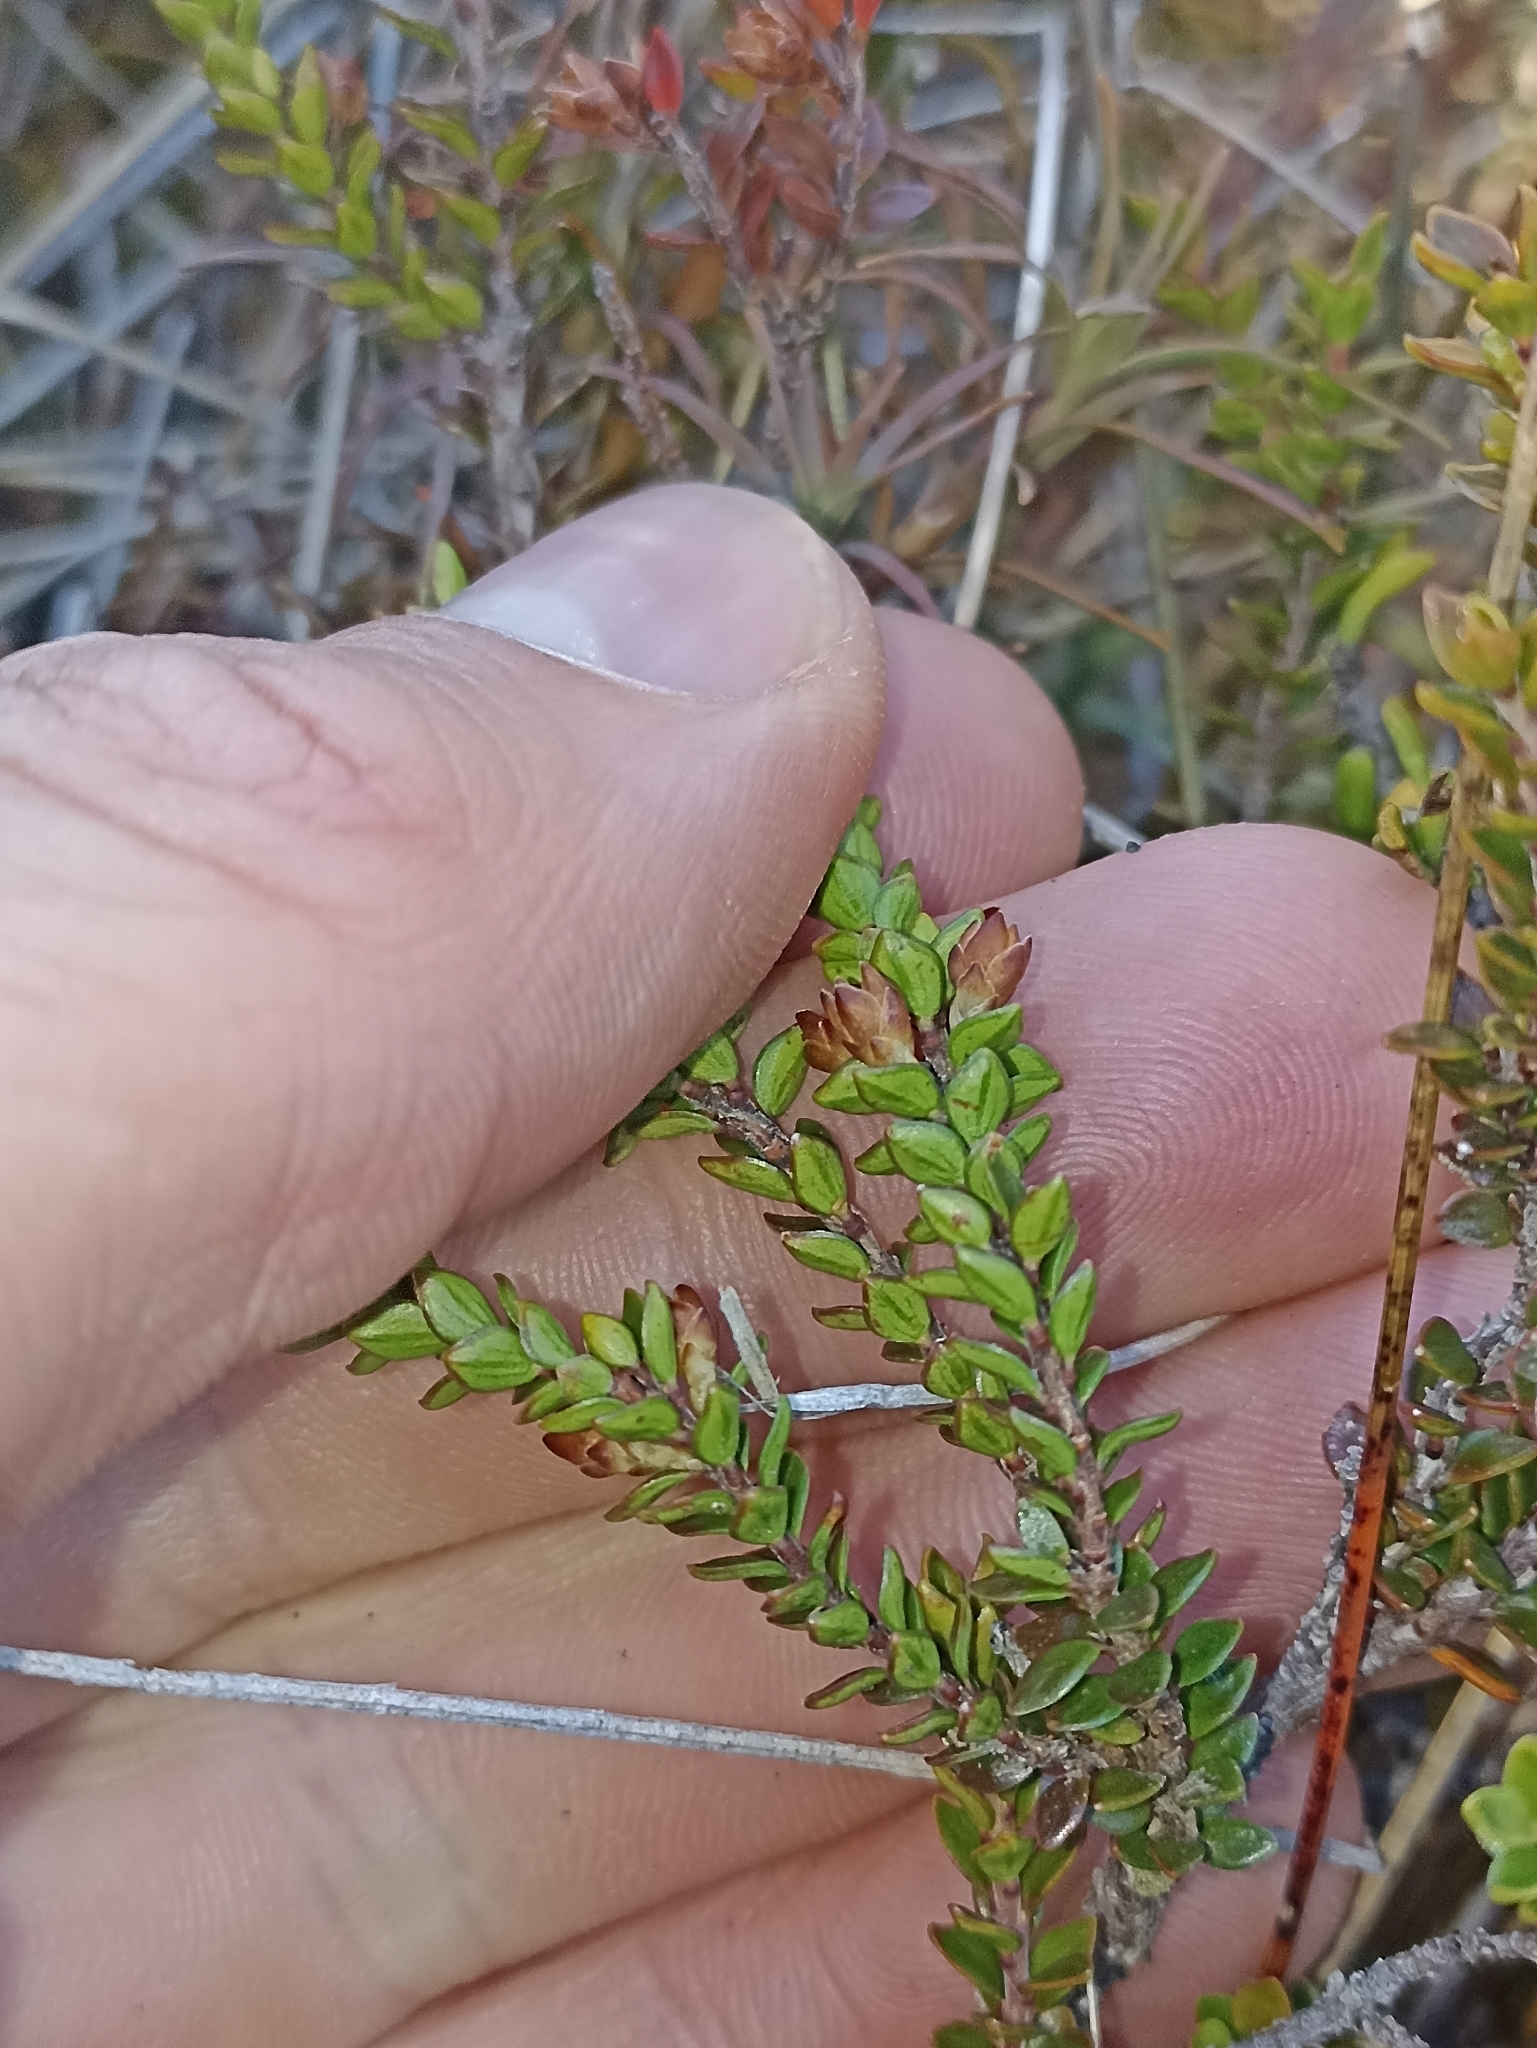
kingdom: Plantae
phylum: Tracheophyta
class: Magnoliopsida
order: Ericales
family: Ericaceae
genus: Epacris
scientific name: Epacris alpina
